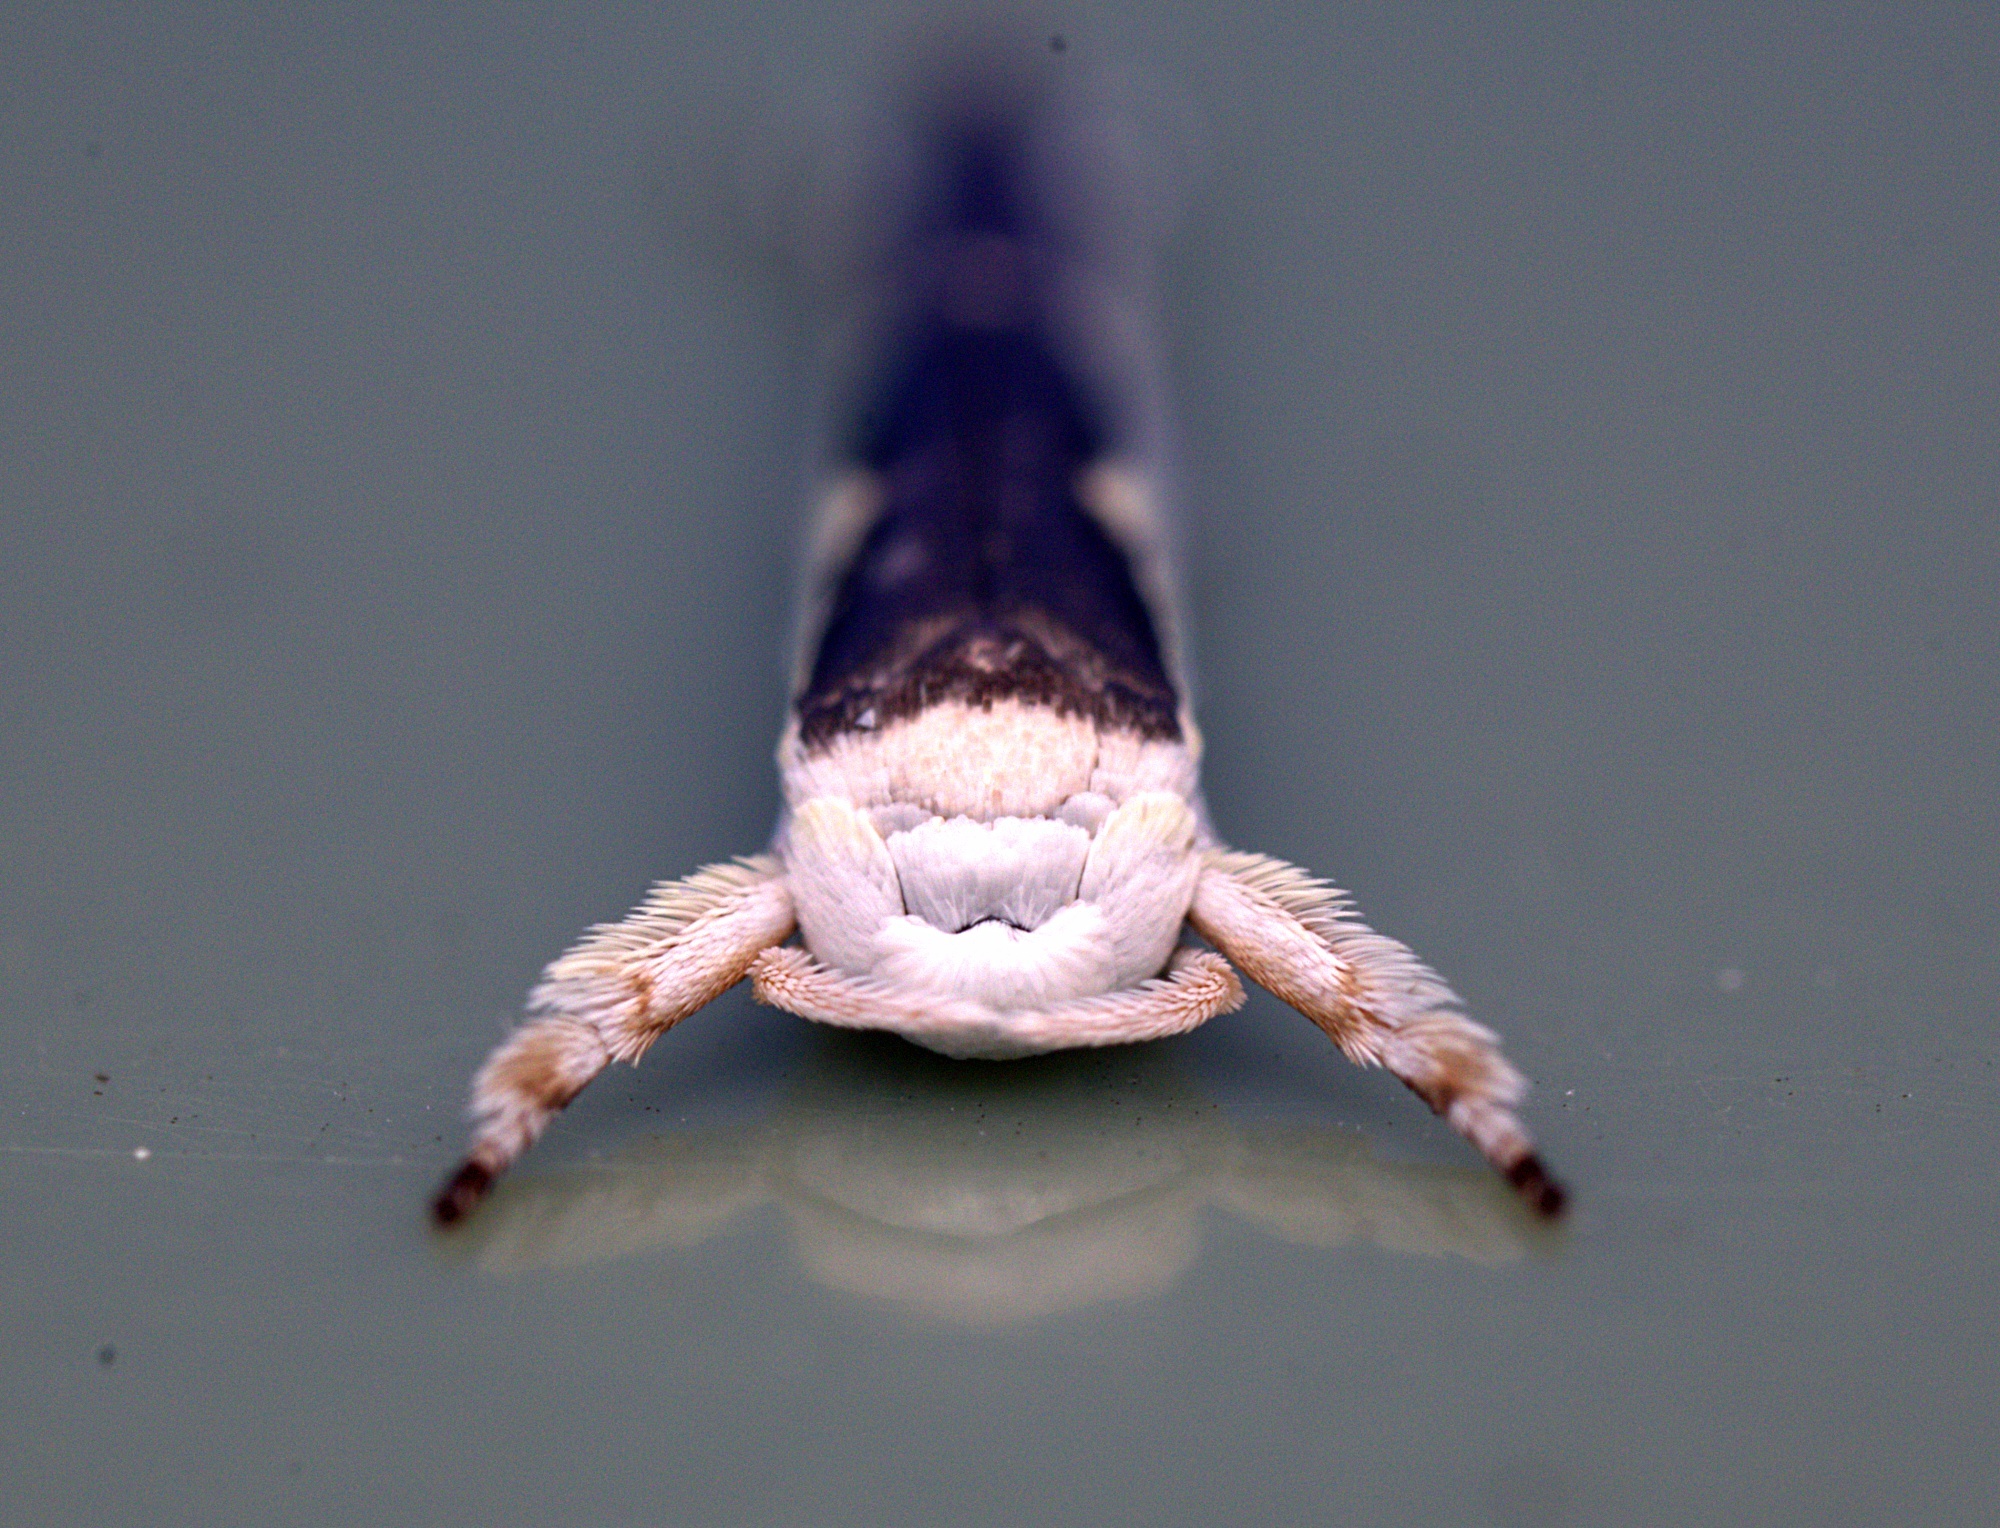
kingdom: Animalia
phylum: Arthropoda
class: Insecta
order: Lepidoptera
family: Roeslerstammiidae
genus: Vanicela
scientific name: Vanicela disjunctella
